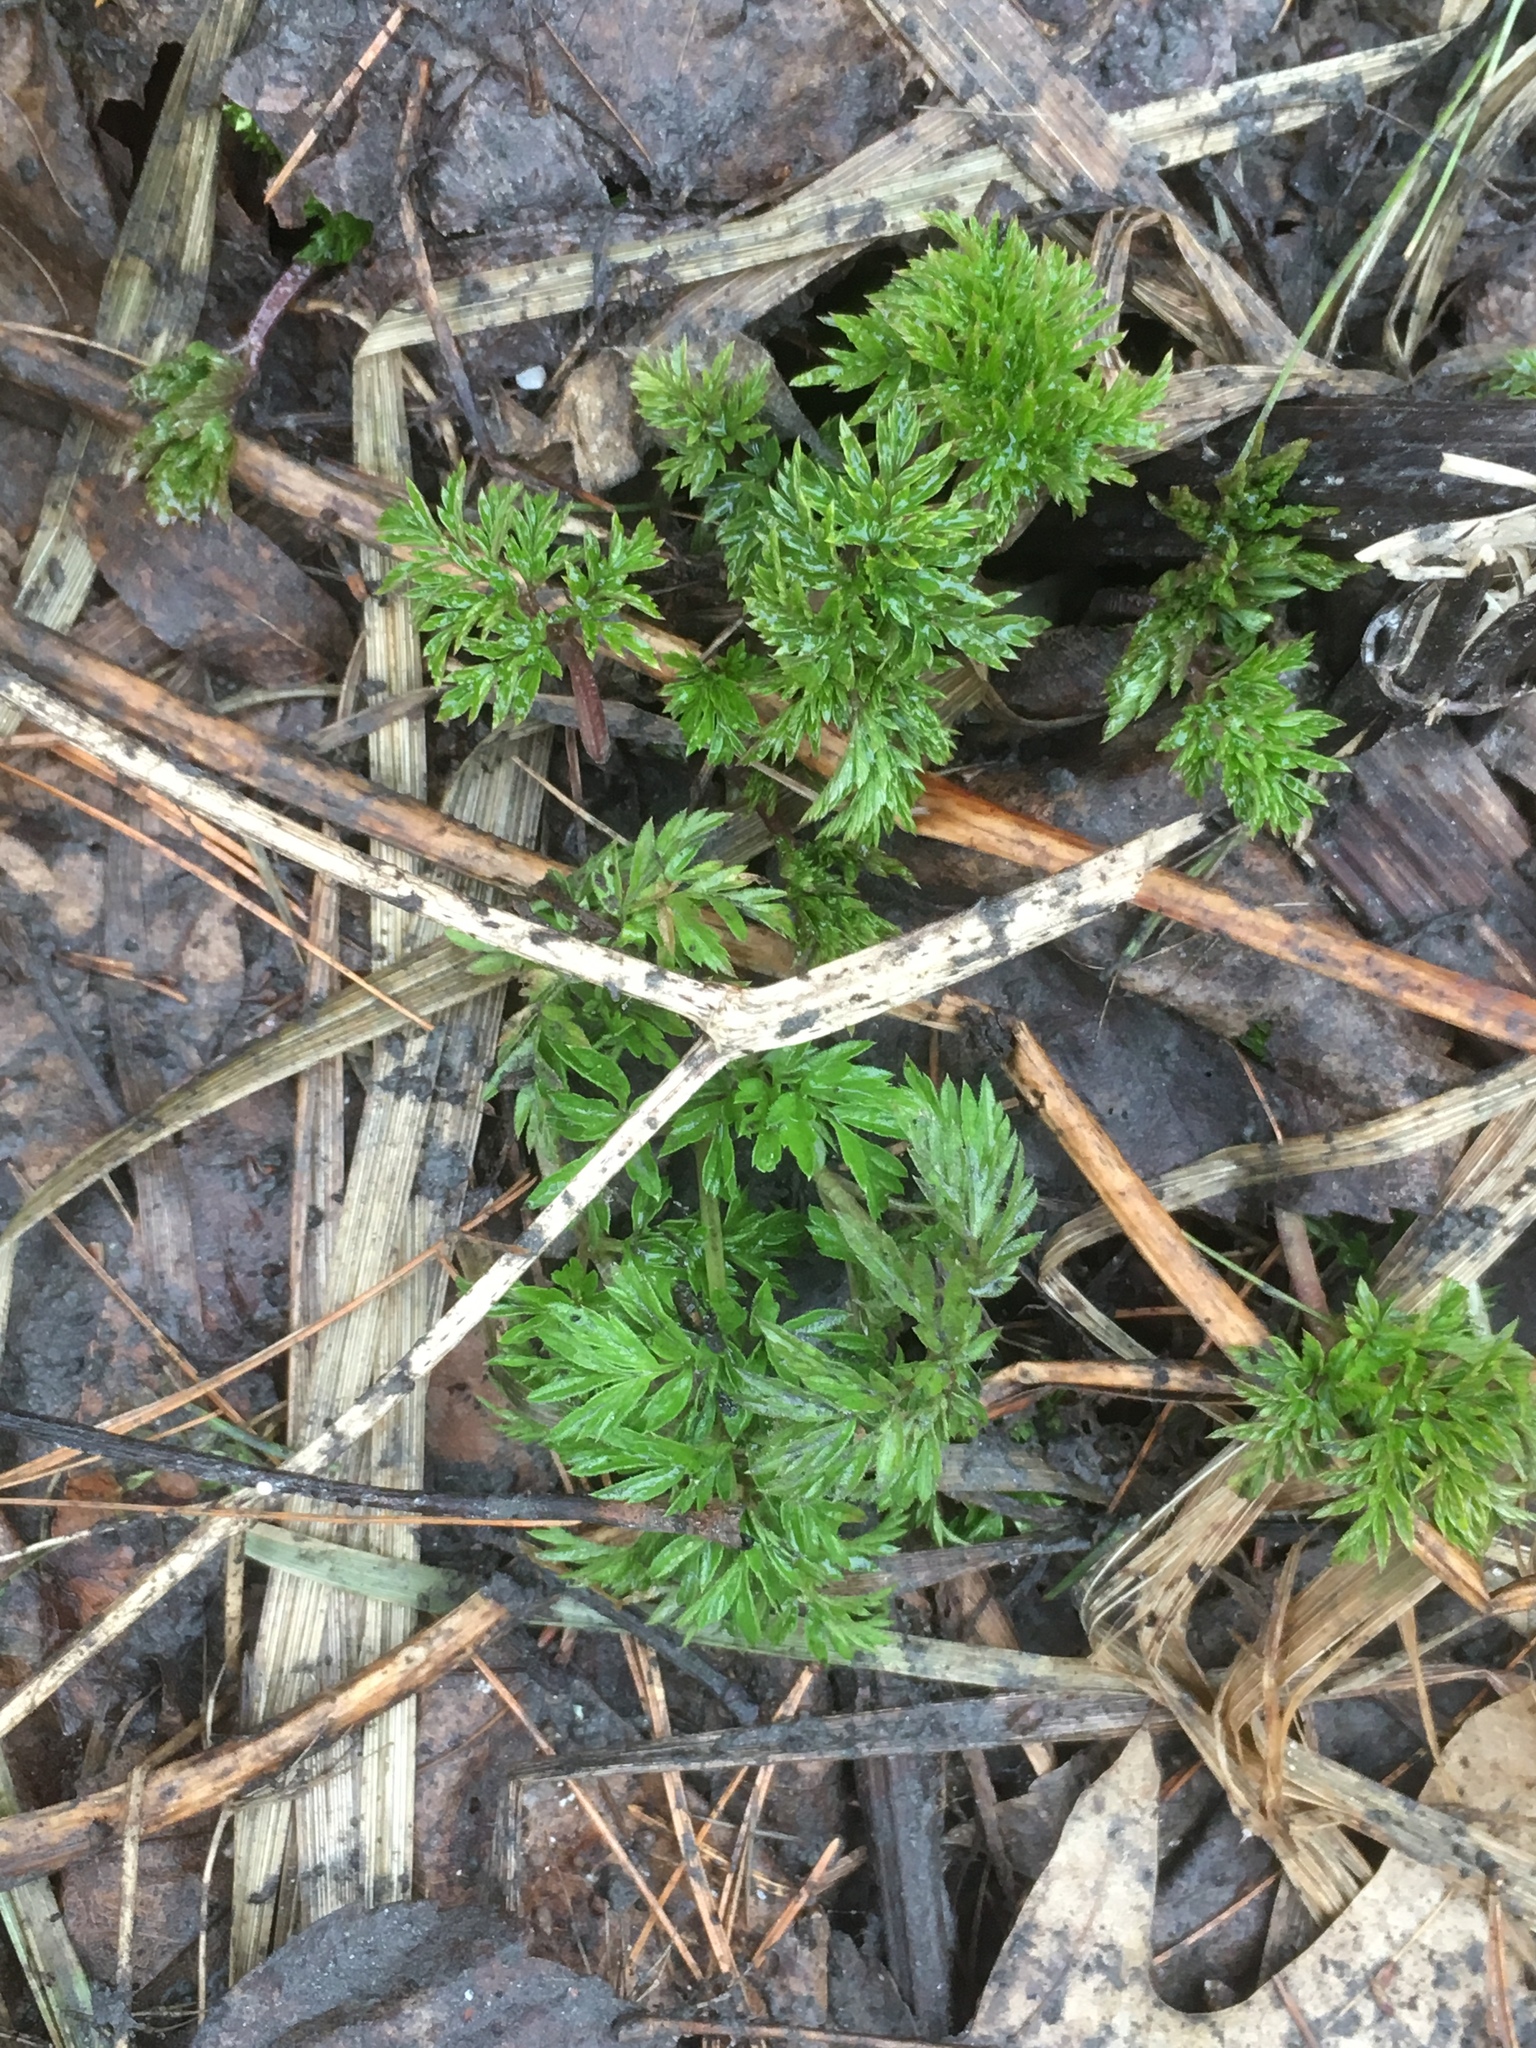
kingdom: Plantae
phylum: Tracheophyta
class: Magnoliopsida
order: Apiales
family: Apiaceae
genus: Anthriscus
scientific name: Anthriscus sylvestris
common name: Cow parsley
